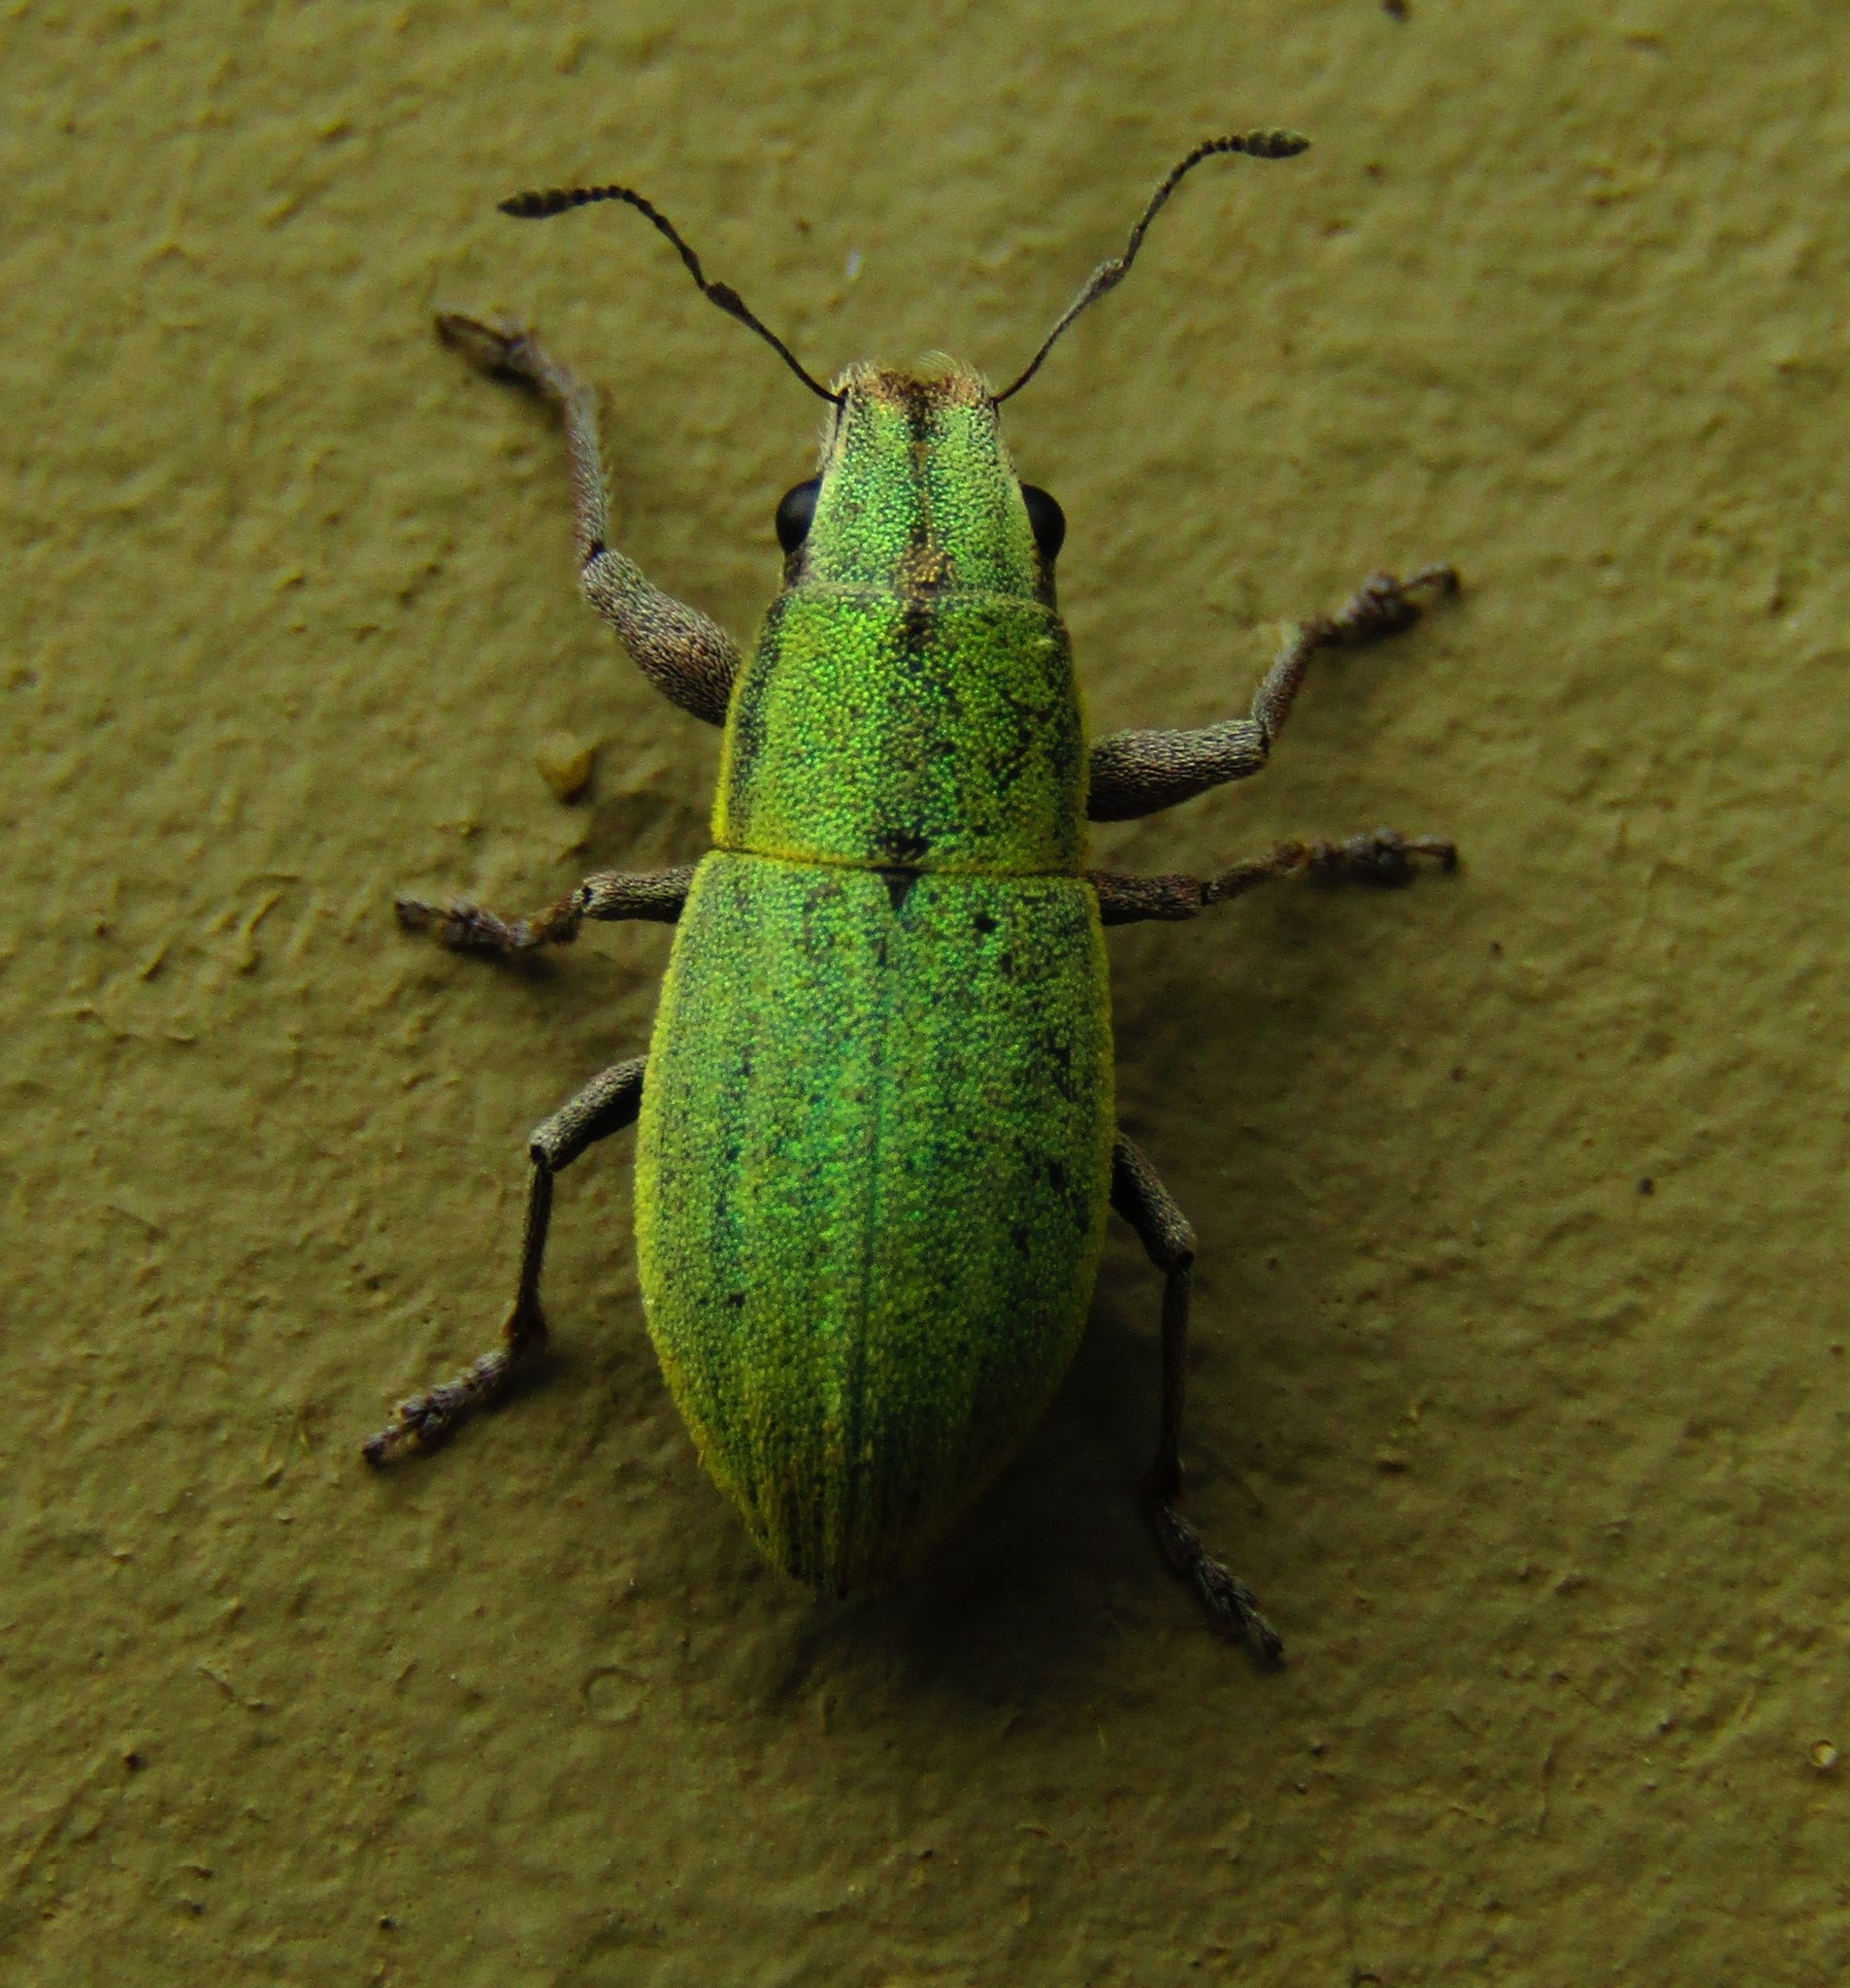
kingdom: Animalia
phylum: Arthropoda
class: Insecta
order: Coleoptera
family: Curculionidae
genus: Pantomorus
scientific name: Pantomorus viridisquamosus
